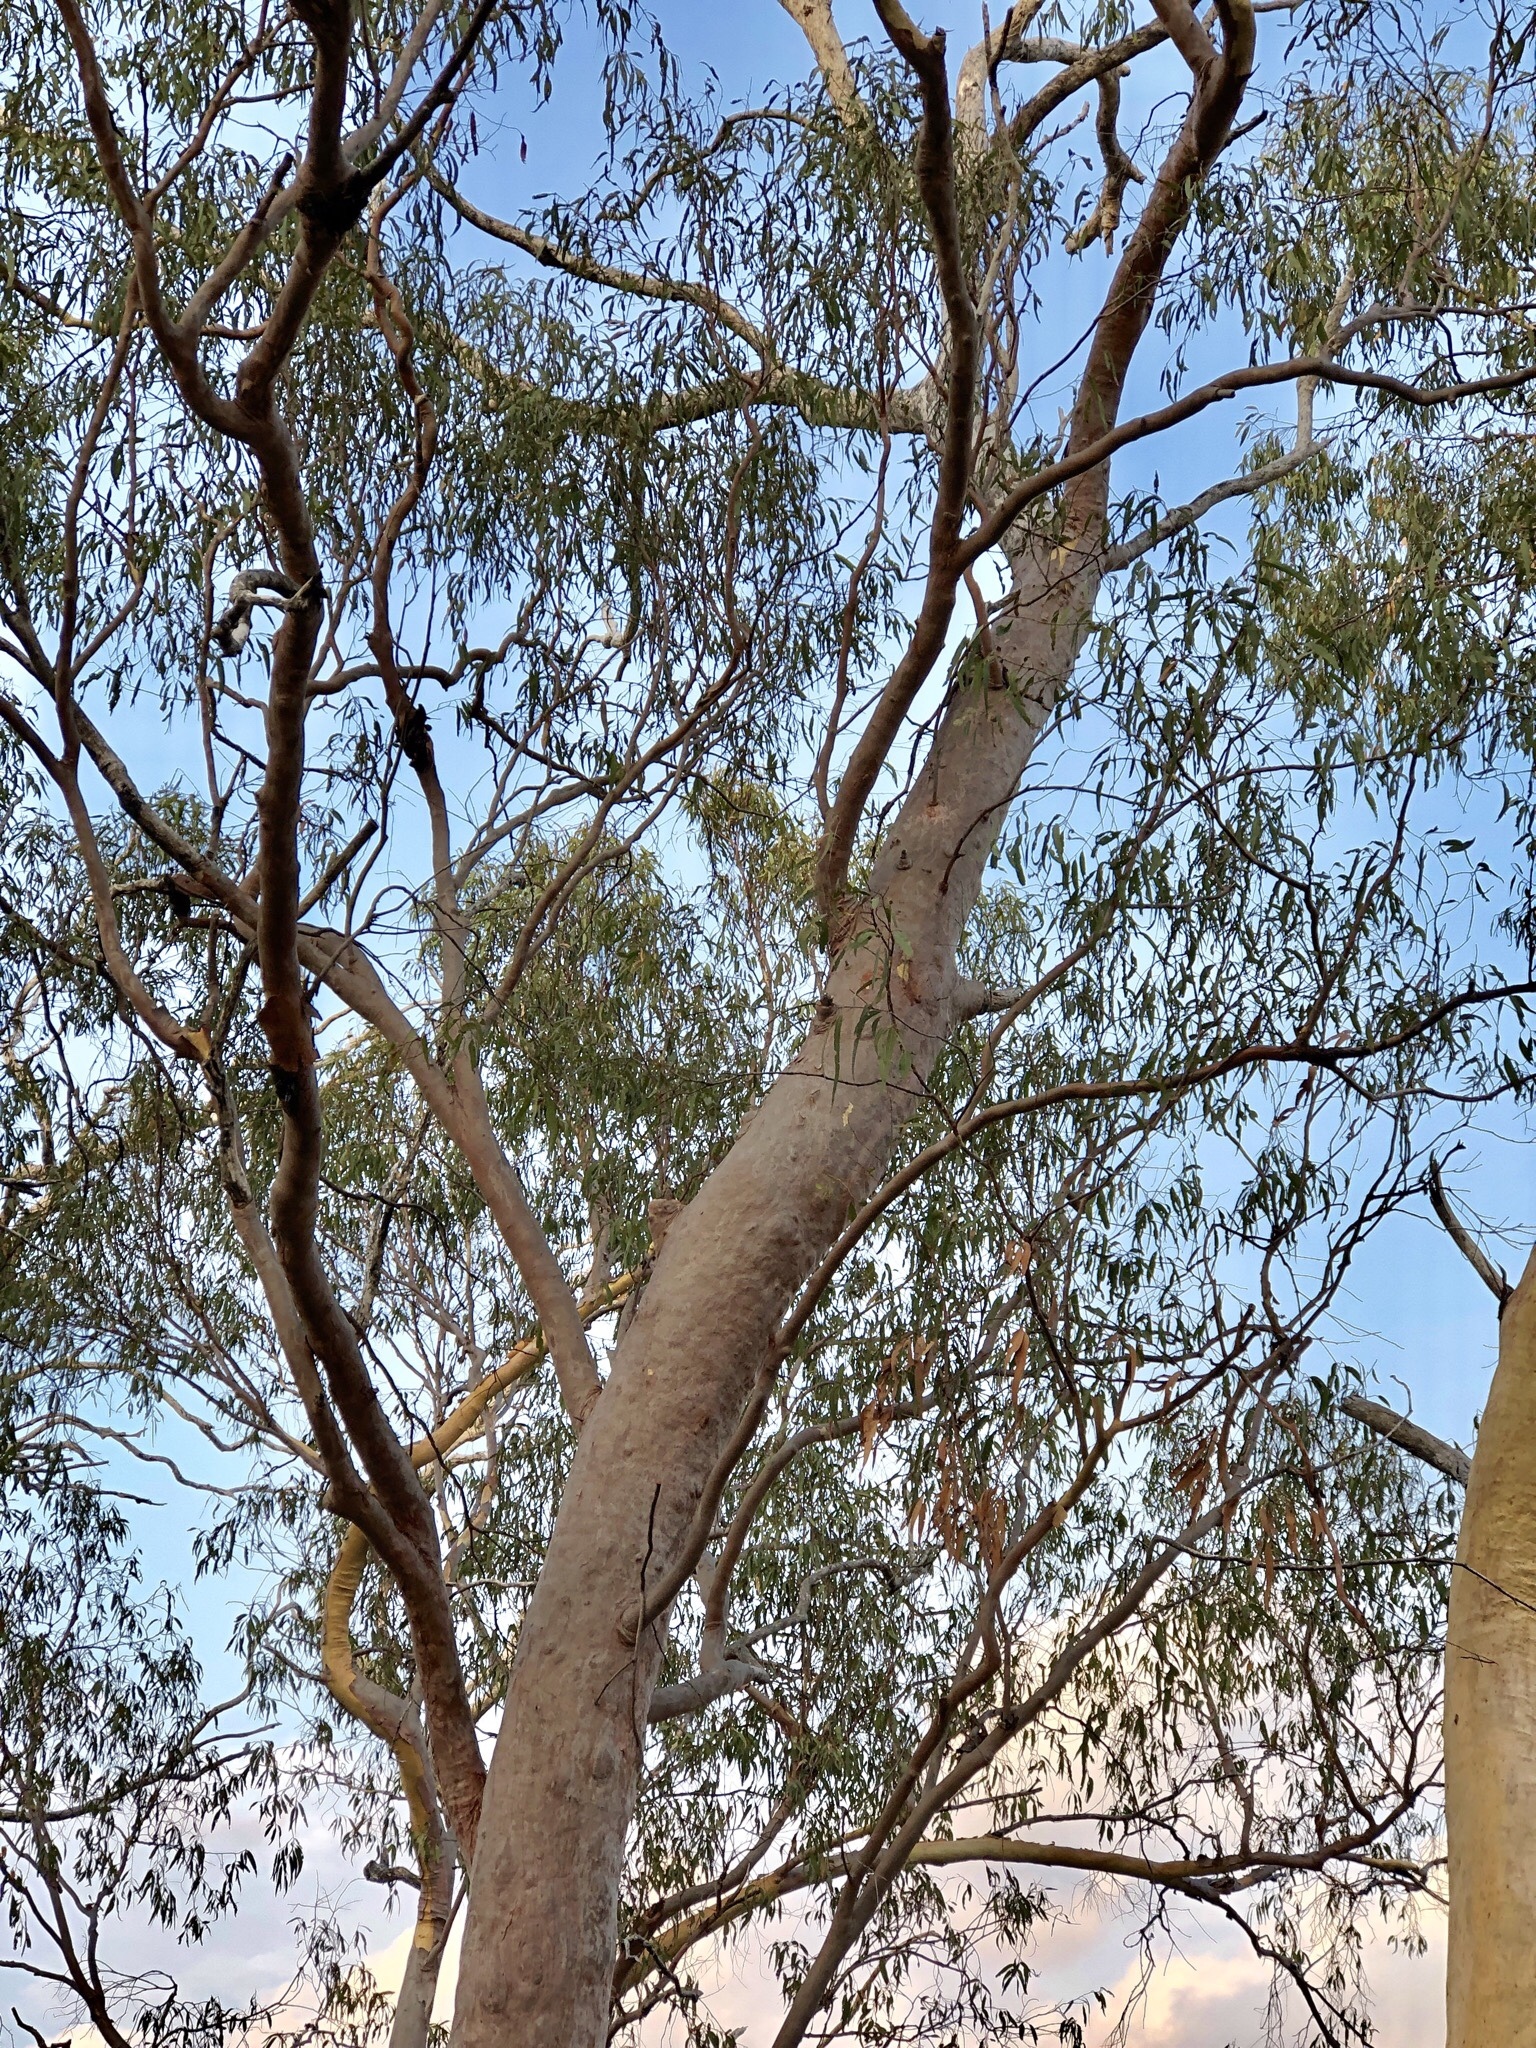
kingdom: Plantae
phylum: Tracheophyta
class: Magnoliopsida
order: Myrtales
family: Myrtaceae
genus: Corymbia
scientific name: Corymbia citriodora
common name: Lemonscented gum
